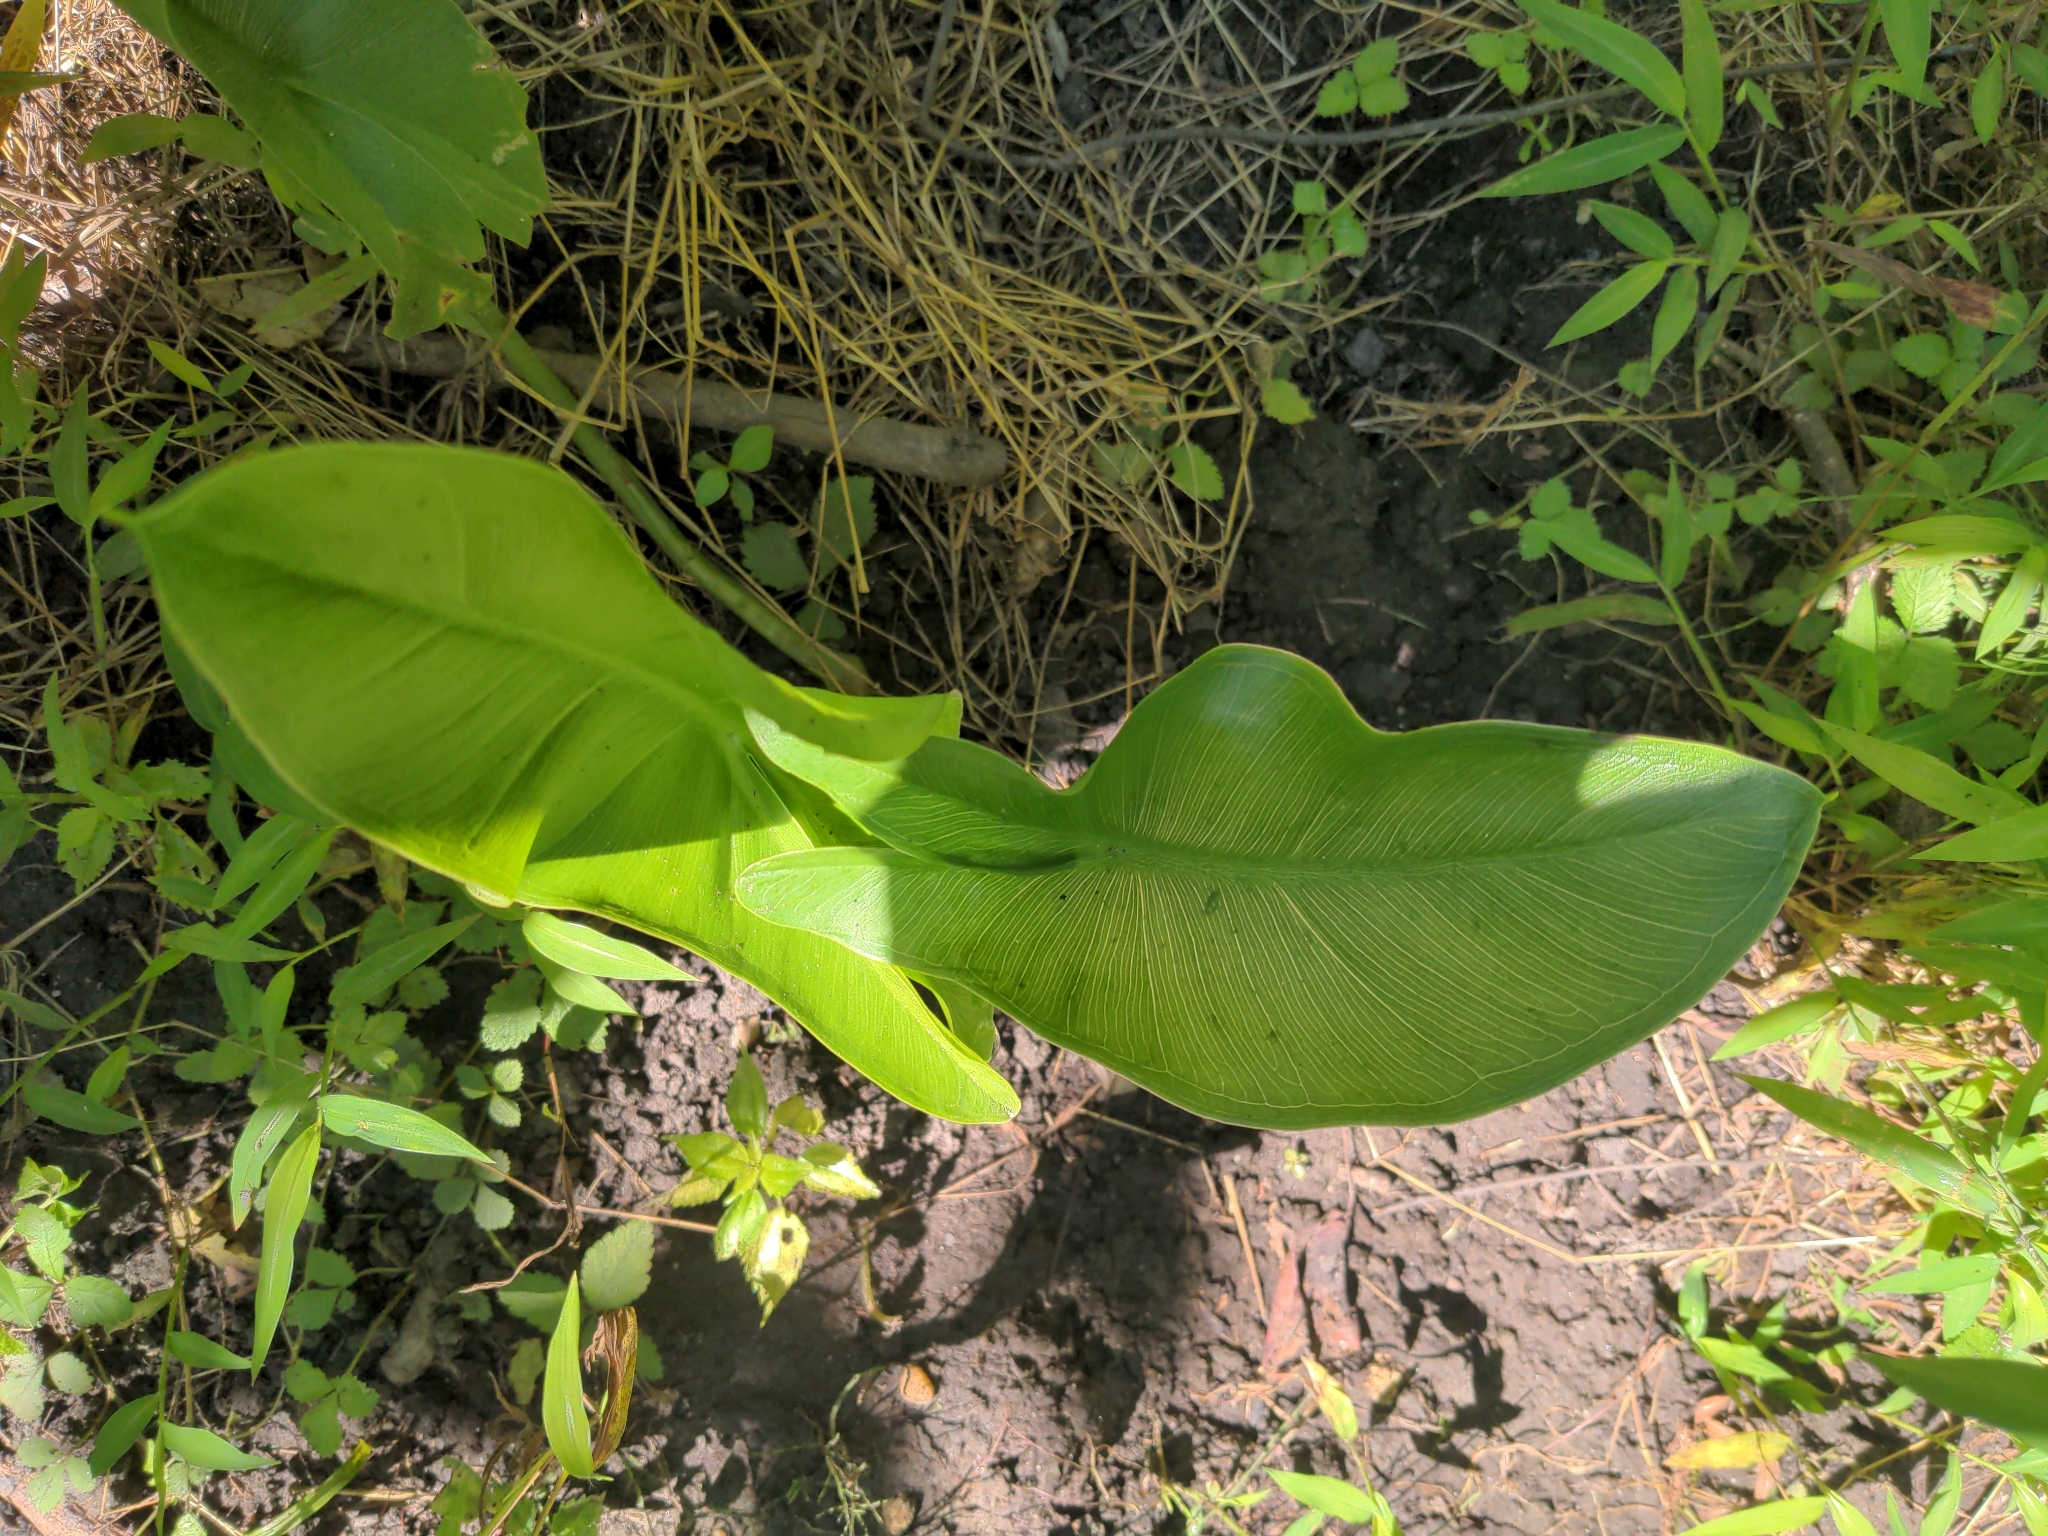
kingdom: Plantae
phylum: Tracheophyta
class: Liliopsida
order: Alismatales
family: Araceae
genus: Peltandra
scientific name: Peltandra virginica
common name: Arrow arum
